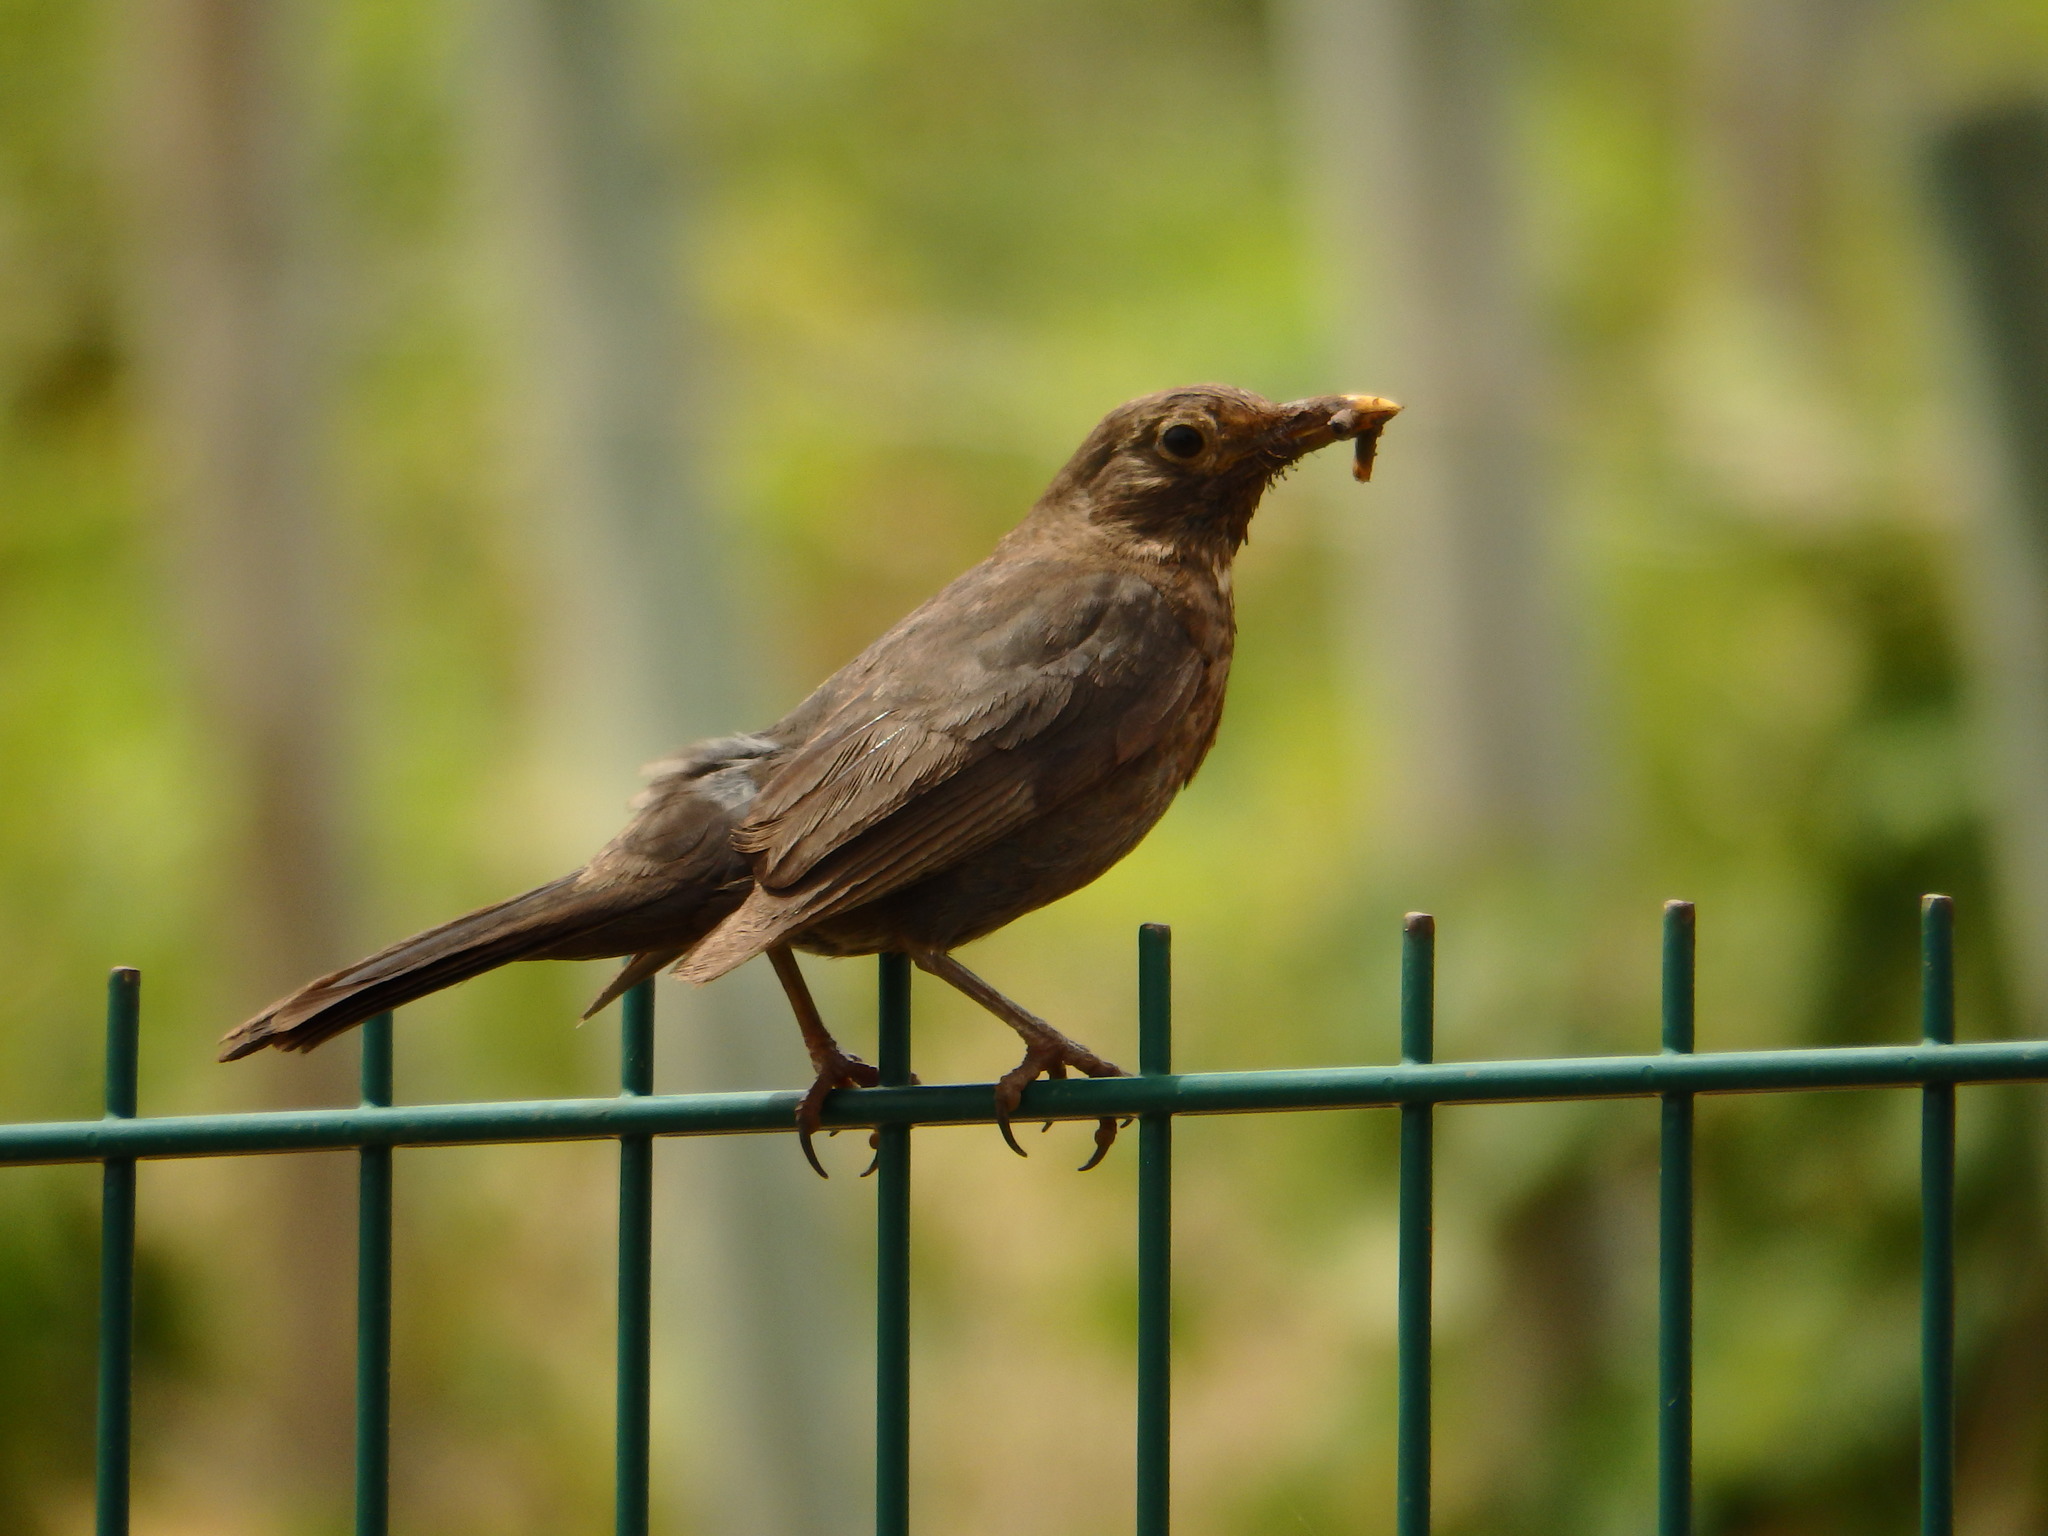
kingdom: Animalia
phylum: Chordata
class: Aves
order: Passeriformes
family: Turdidae
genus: Turdus
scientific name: Turdus merula
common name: Common blackbird
